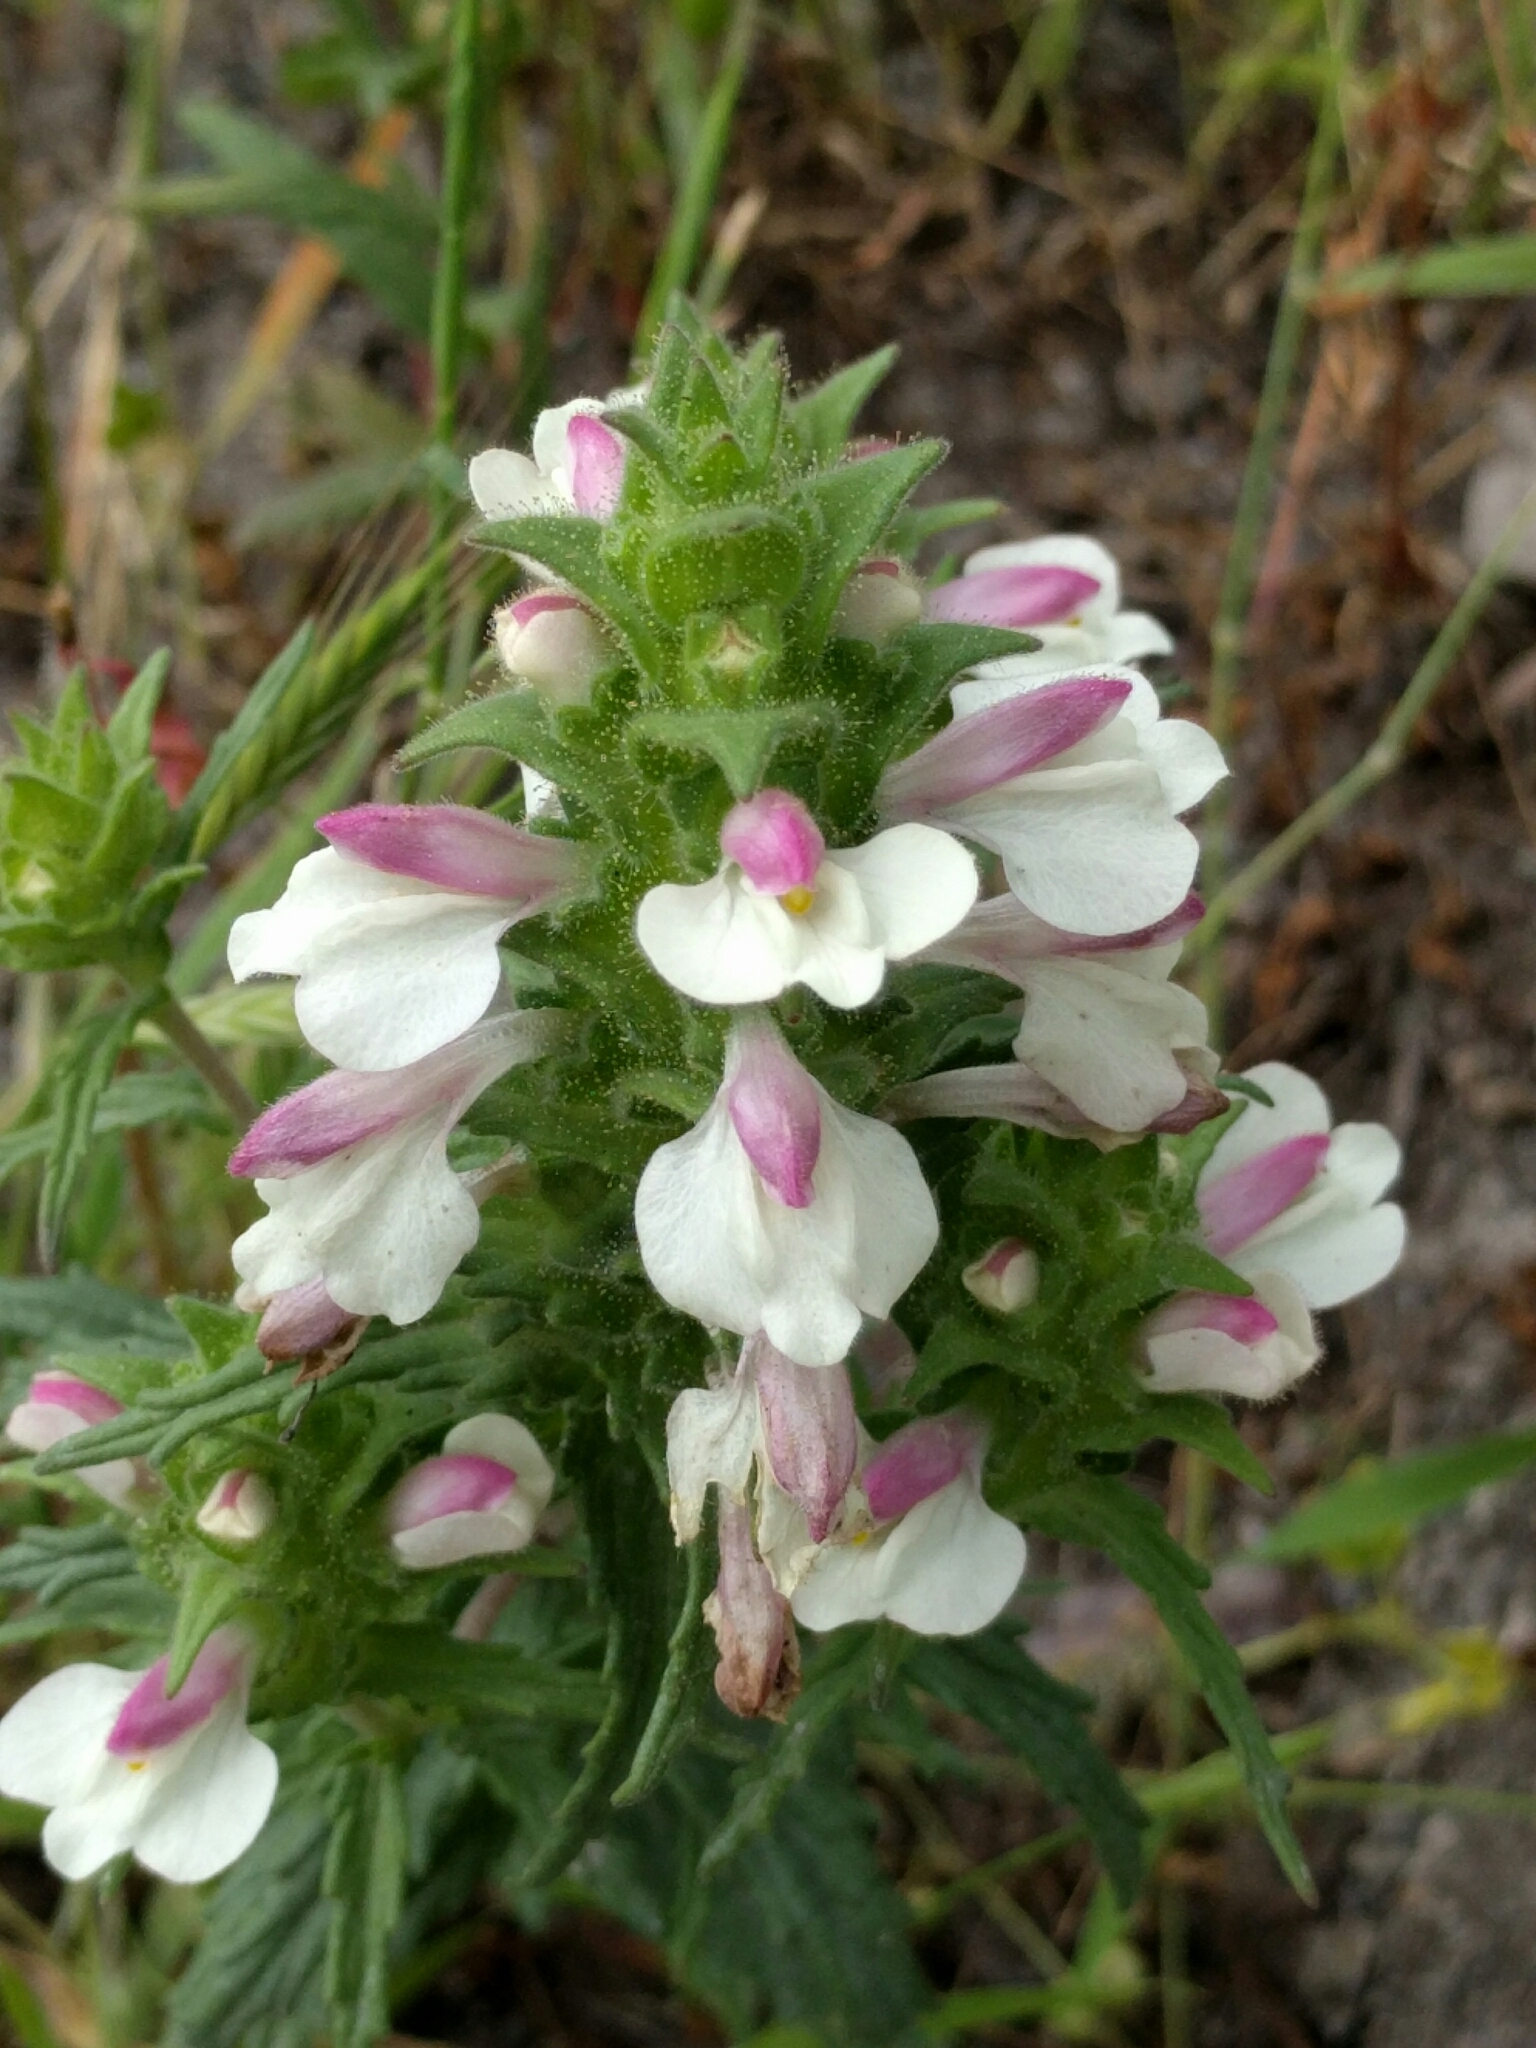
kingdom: Plantae
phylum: Tracheophyta
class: Magnoliopsida
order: Lamiales
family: Orobanchaceae
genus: Bellardia
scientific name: Bellardia trixago
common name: Mediterranean lineseed
